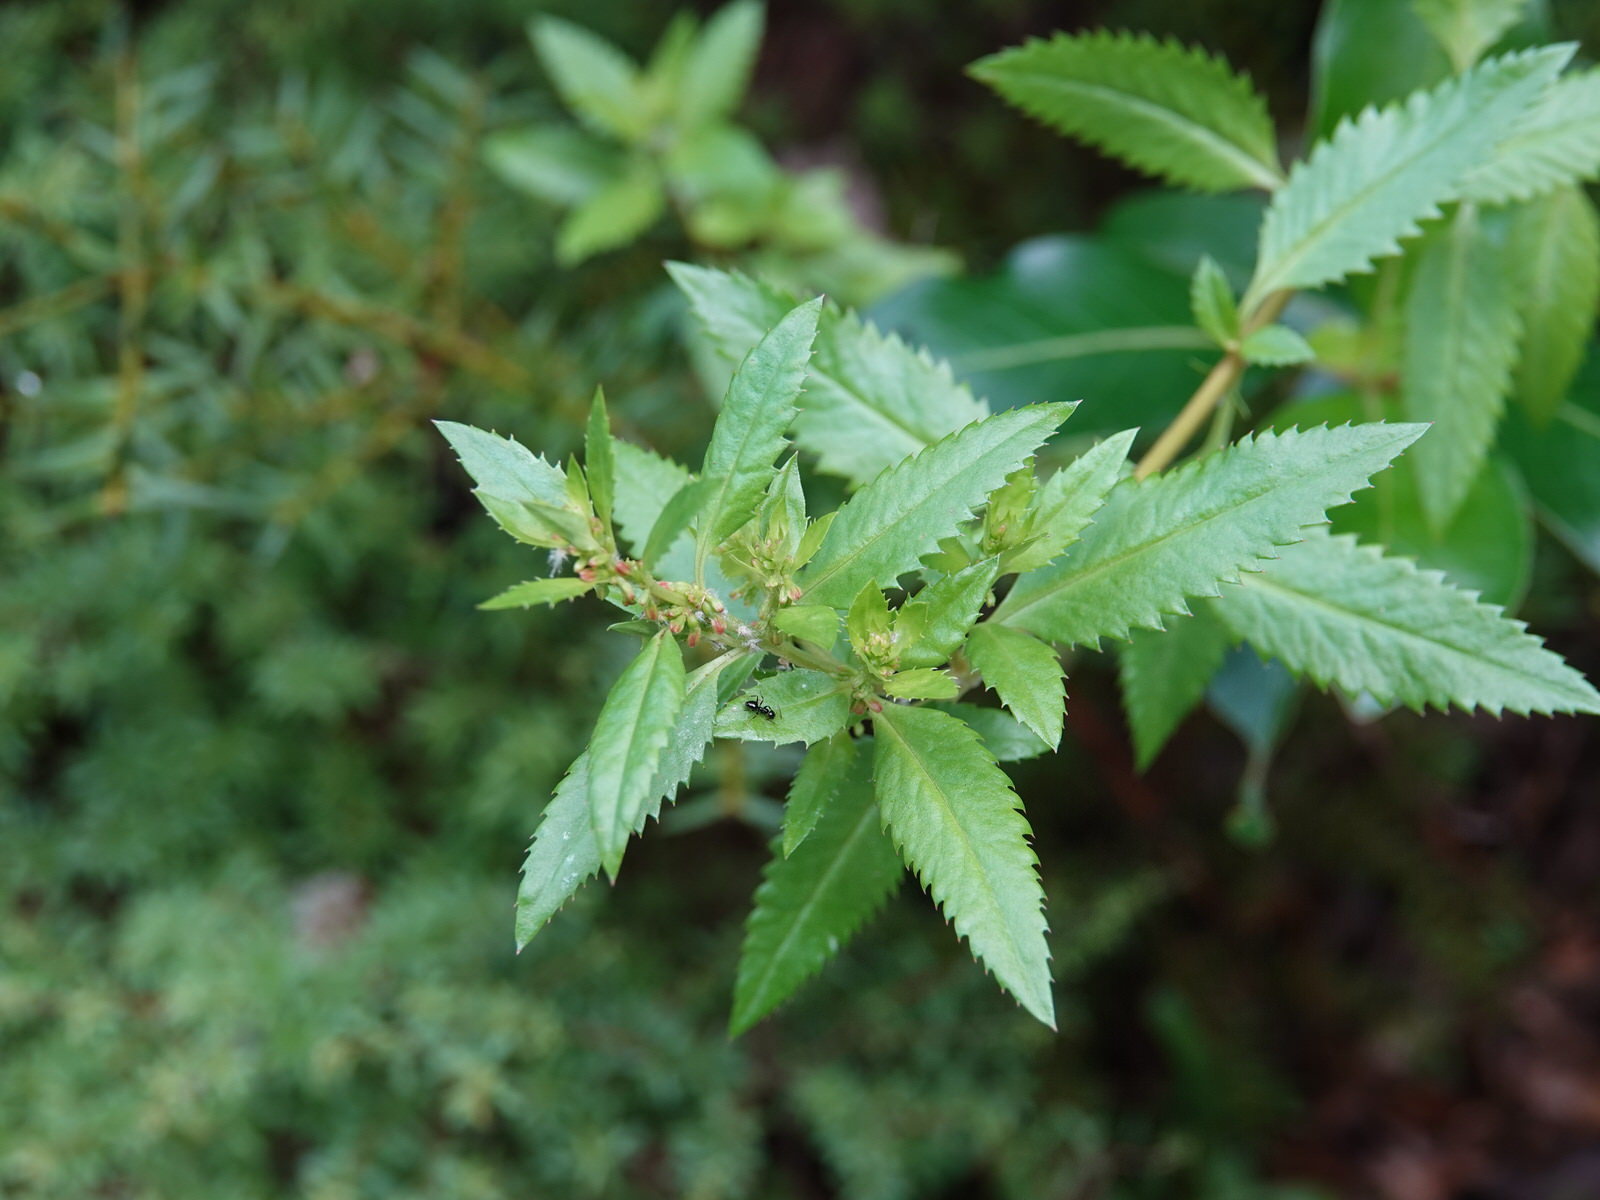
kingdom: Plantae
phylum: Tracheophyta
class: Magnoliopsida
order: Saxifragales
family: Haloragaceae
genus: Haloragis
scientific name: Haloragis erecta
